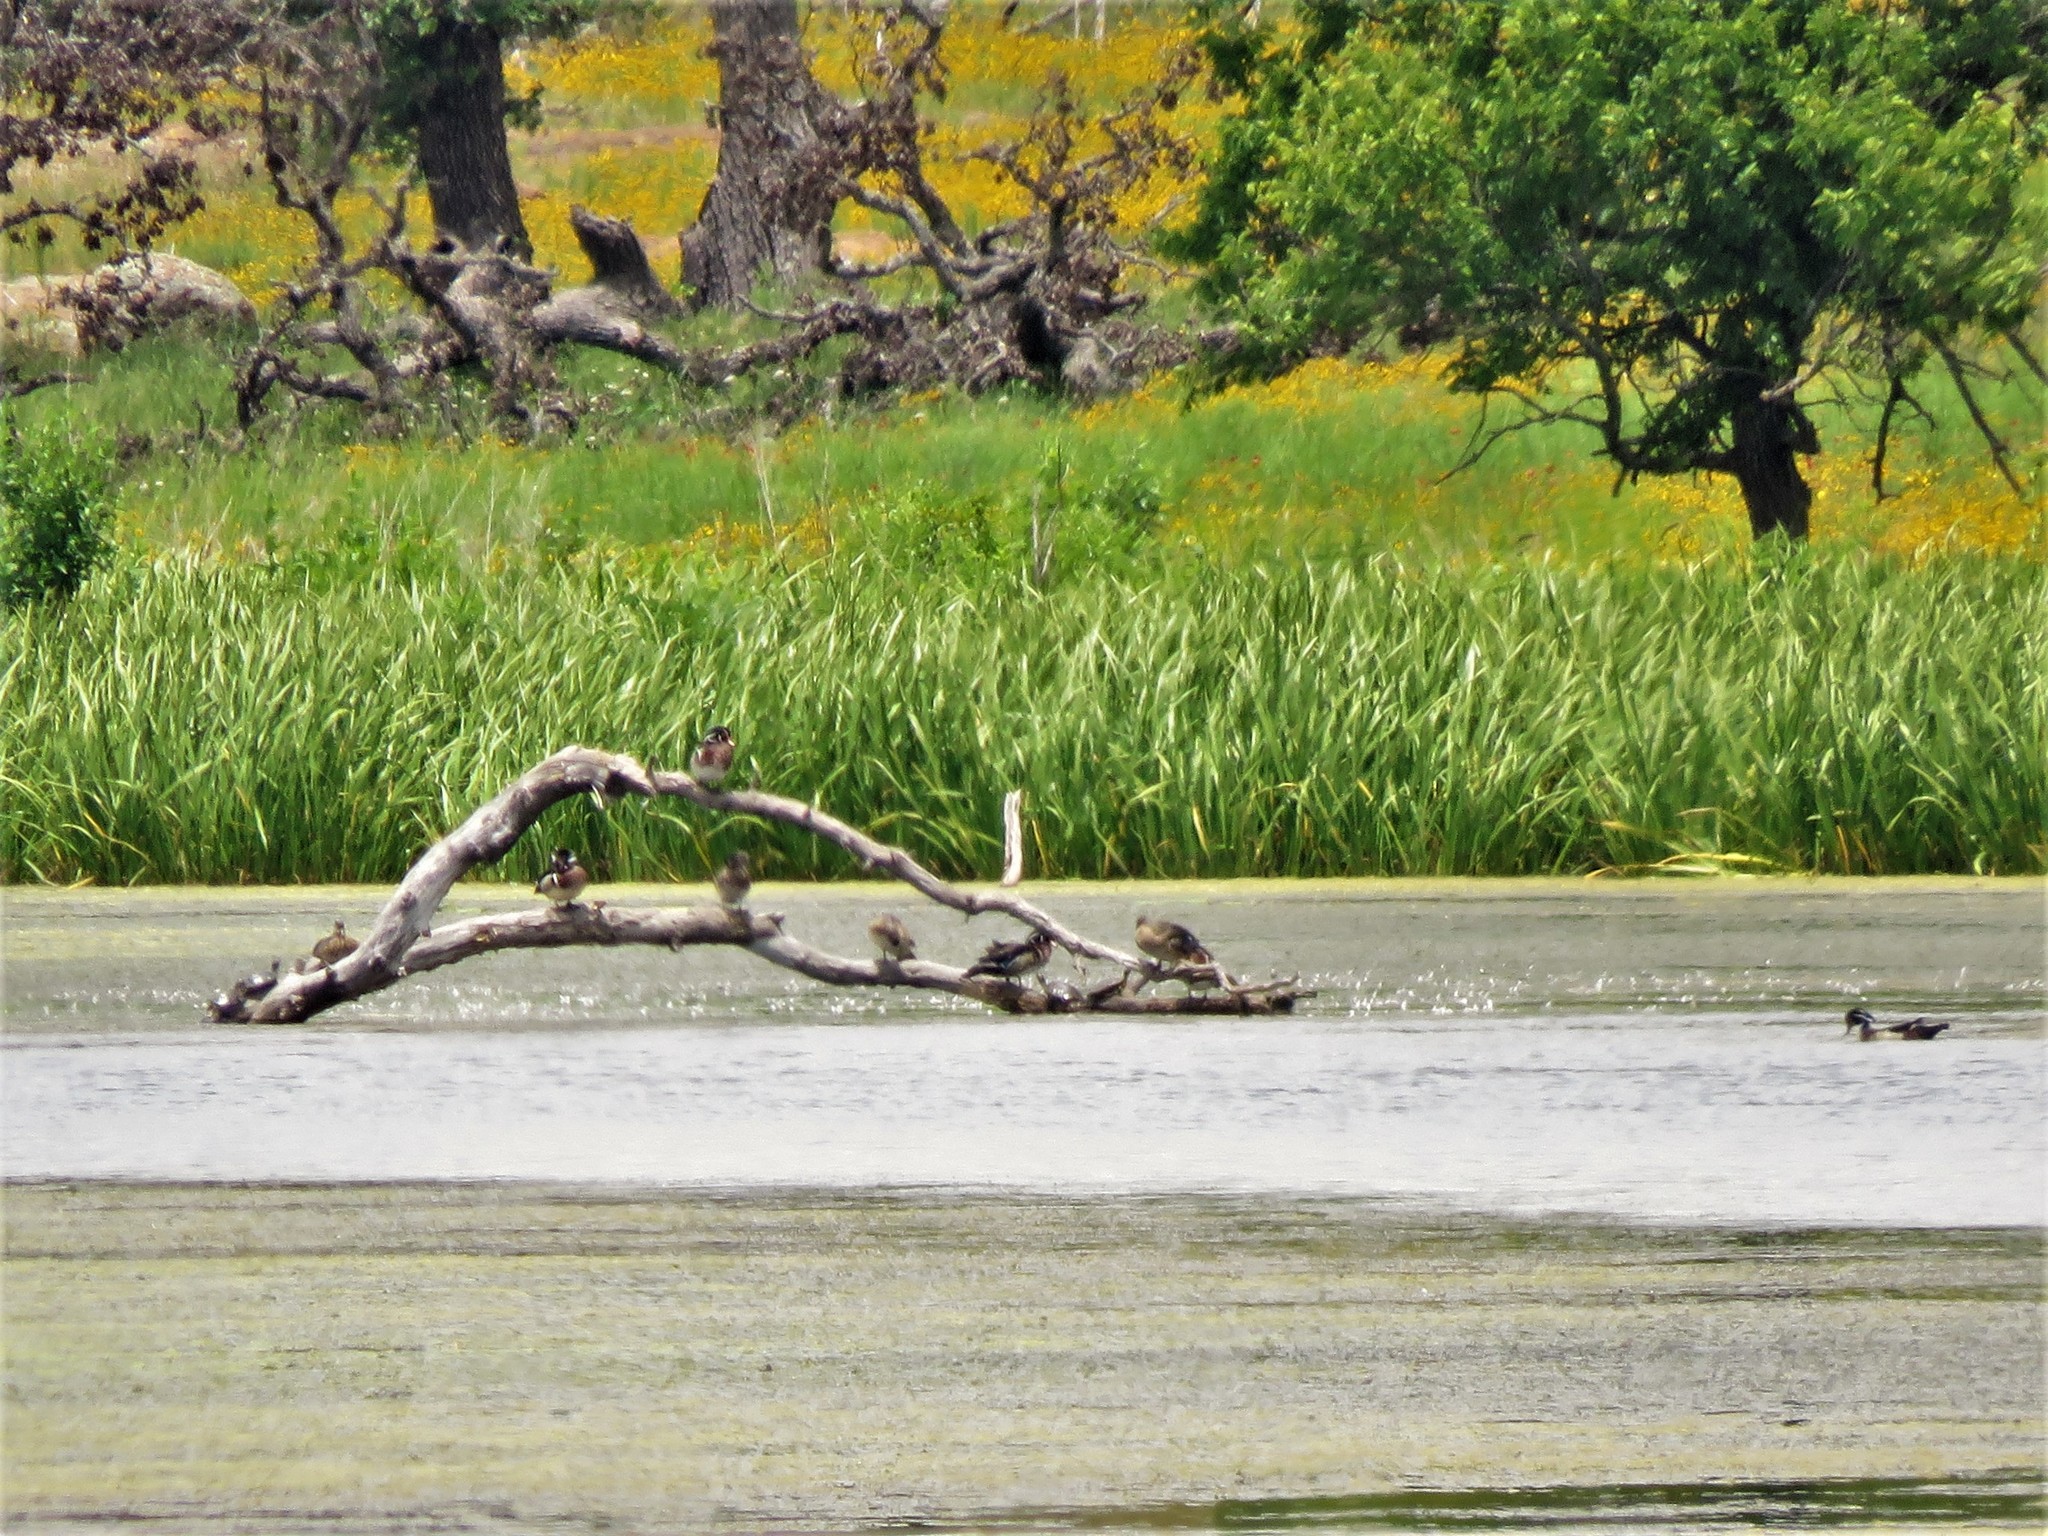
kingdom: Animalia
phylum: Chordata
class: Aves
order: Anseriformes
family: Anatidae
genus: Aix
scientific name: Aix sponsa
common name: Wood duck
